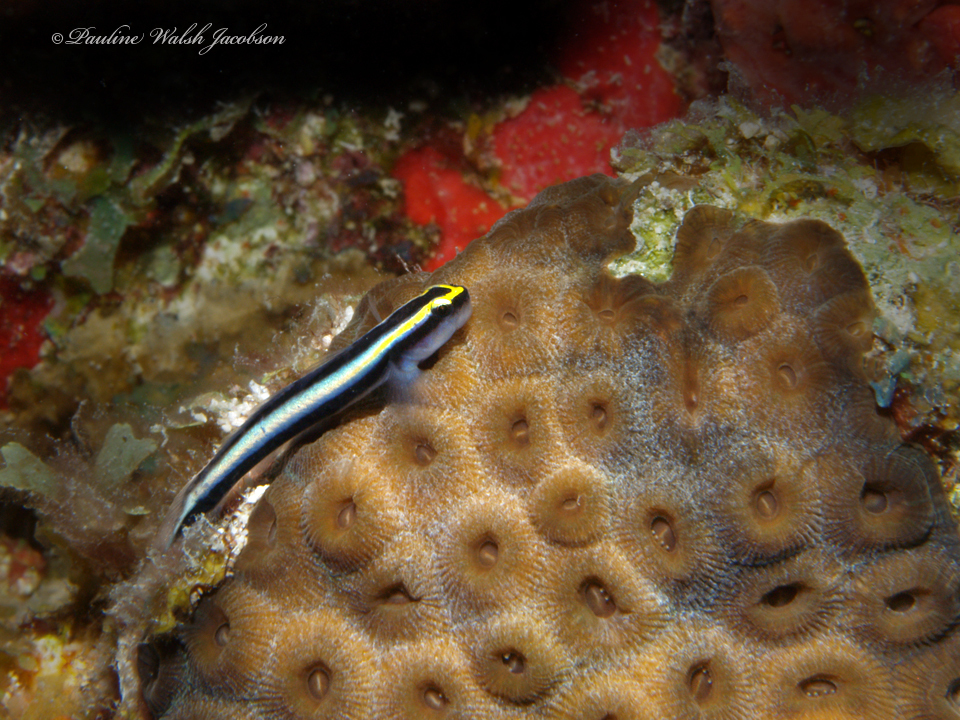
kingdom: Animalia
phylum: Chordata
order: Perciformes
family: Gobiidae
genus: Elacatinus
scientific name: Elacatinus evelynae
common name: Sharknose goby
